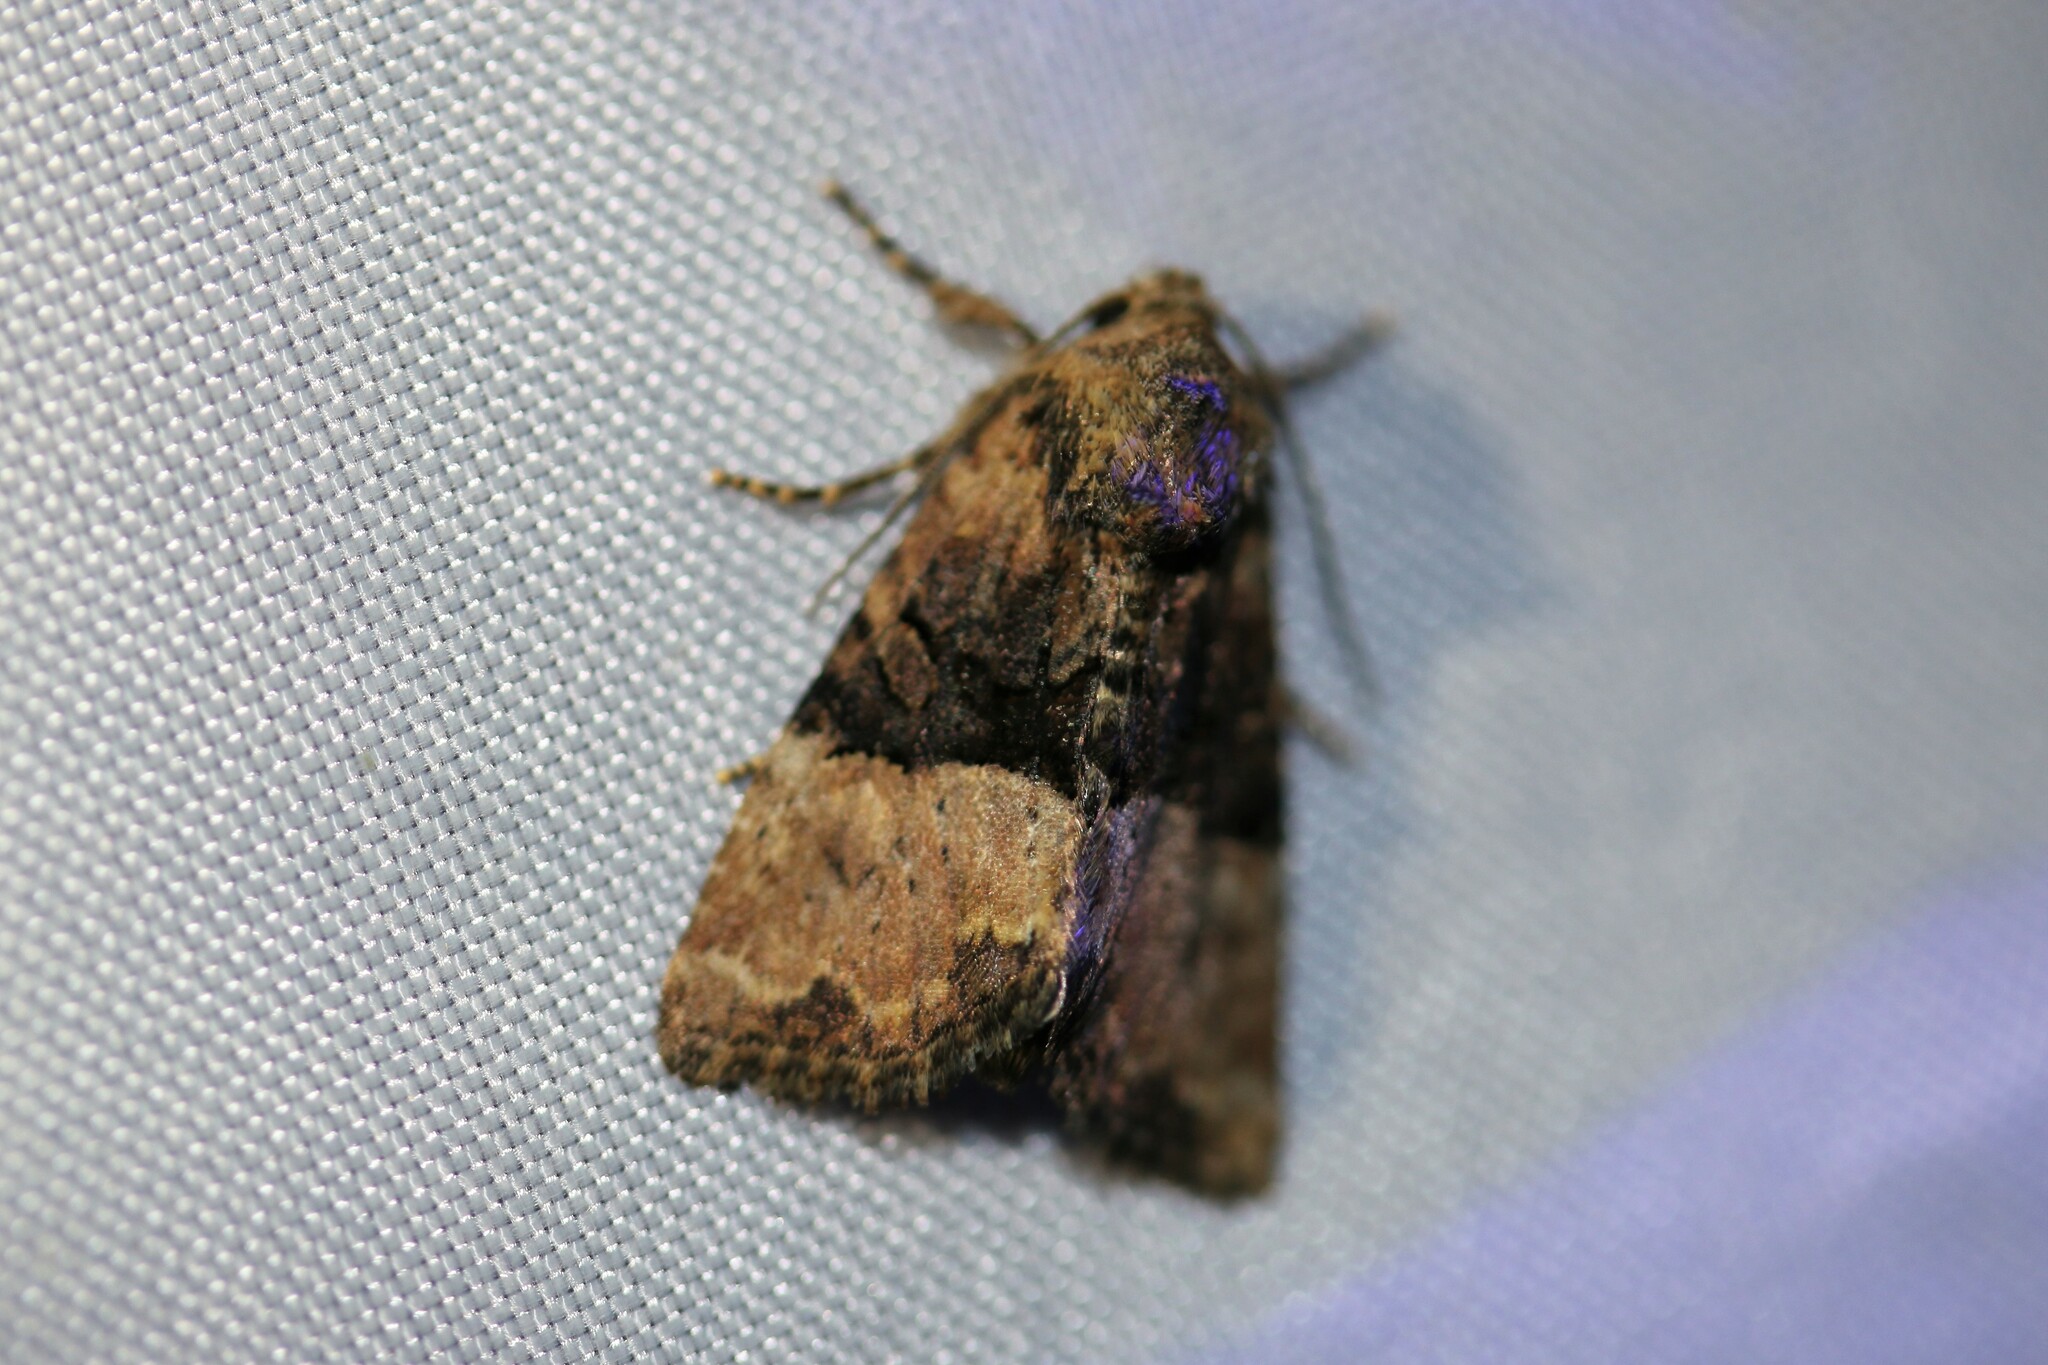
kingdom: Animalia
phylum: Arthropoda
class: Insecta
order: Lepidoptera
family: Noctuidae
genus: Mesoligia
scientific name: Mesoligia furuncula
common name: Cloaked minor
